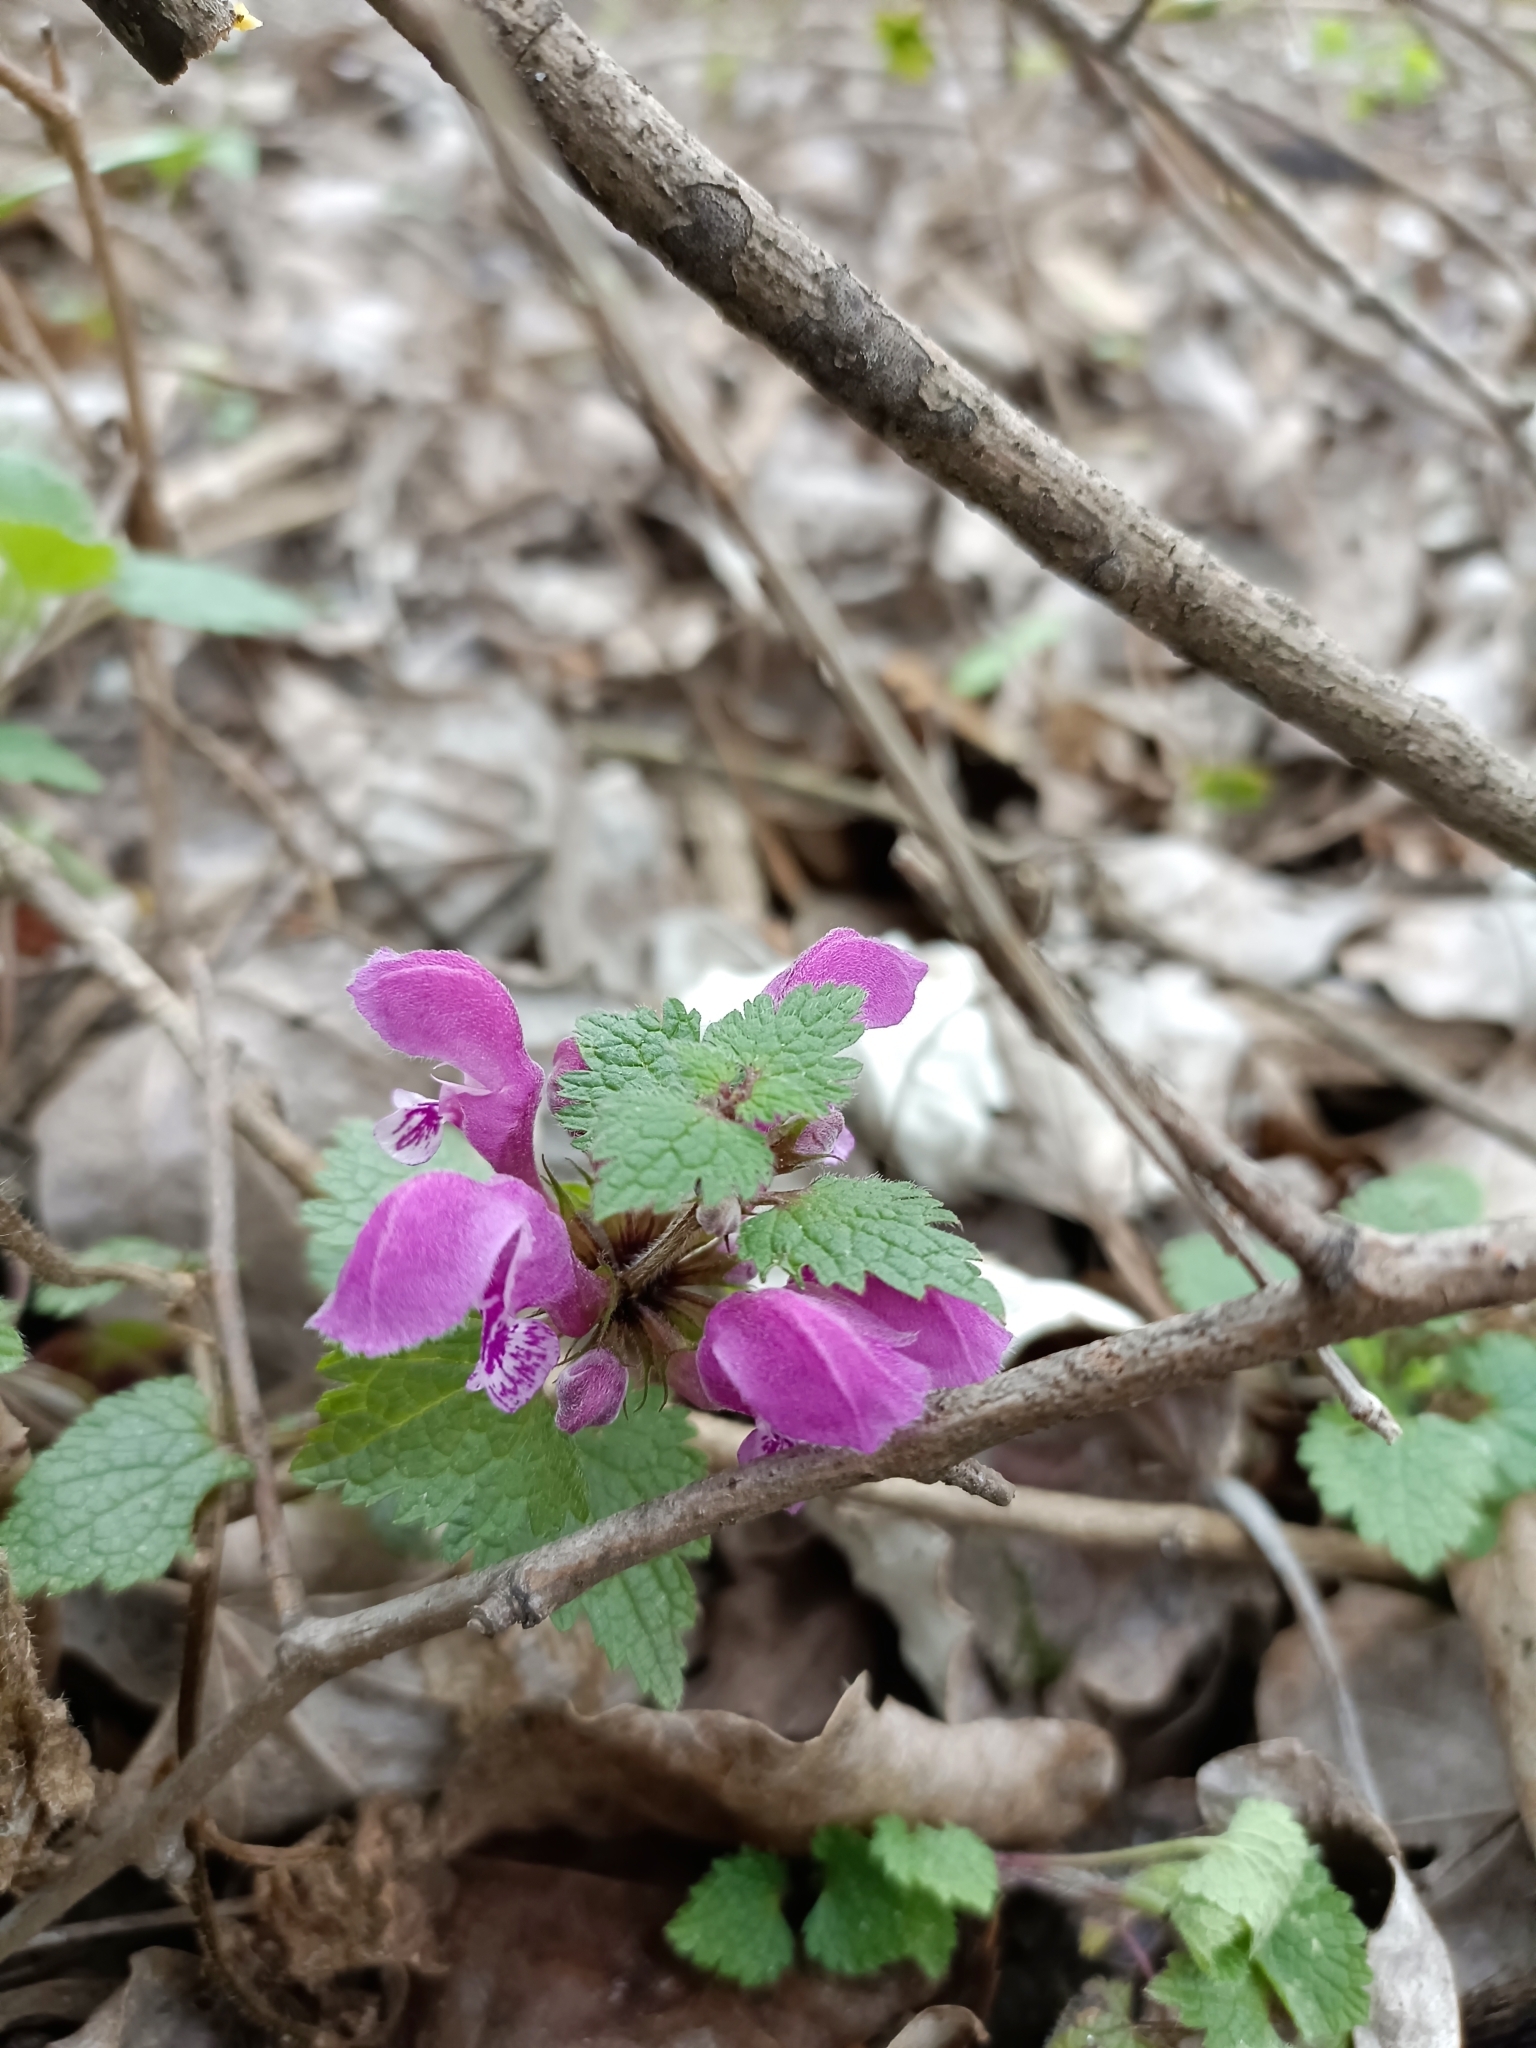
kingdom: Plantae
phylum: Tracheophyta
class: Magnoliopsida
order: Lamiales
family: Lamiaceae
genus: Lamium
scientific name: Lamium maculatum
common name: Spotted dead-nettle
